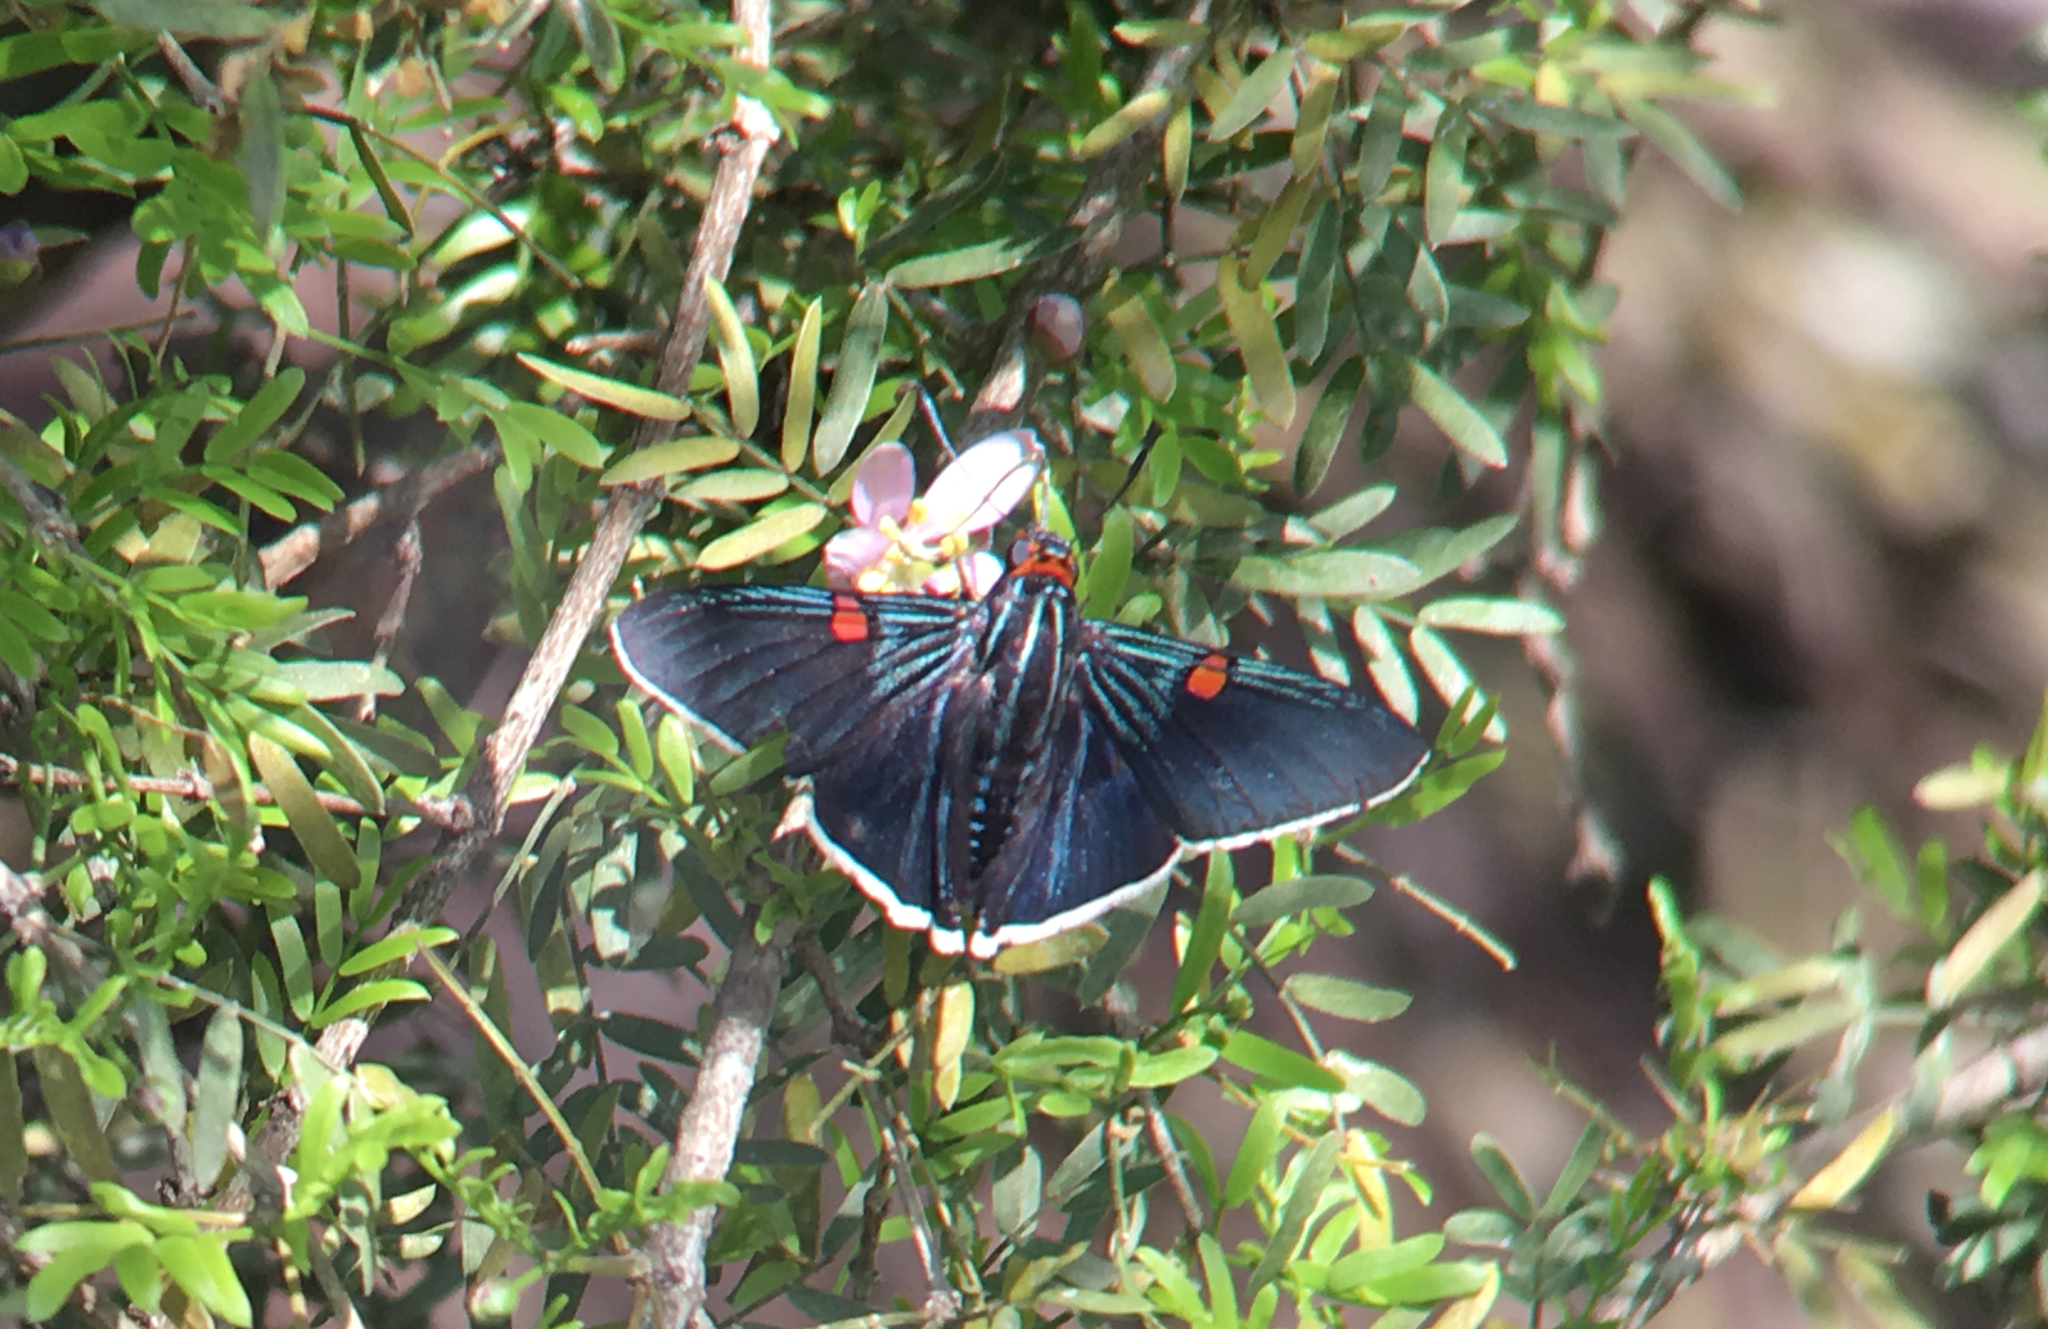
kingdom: Animalia
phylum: Arthropoda
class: Insecta
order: Lepidoptera
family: Hesperiidae
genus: Phocides
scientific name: Phocides lilea
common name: Guava skipper
